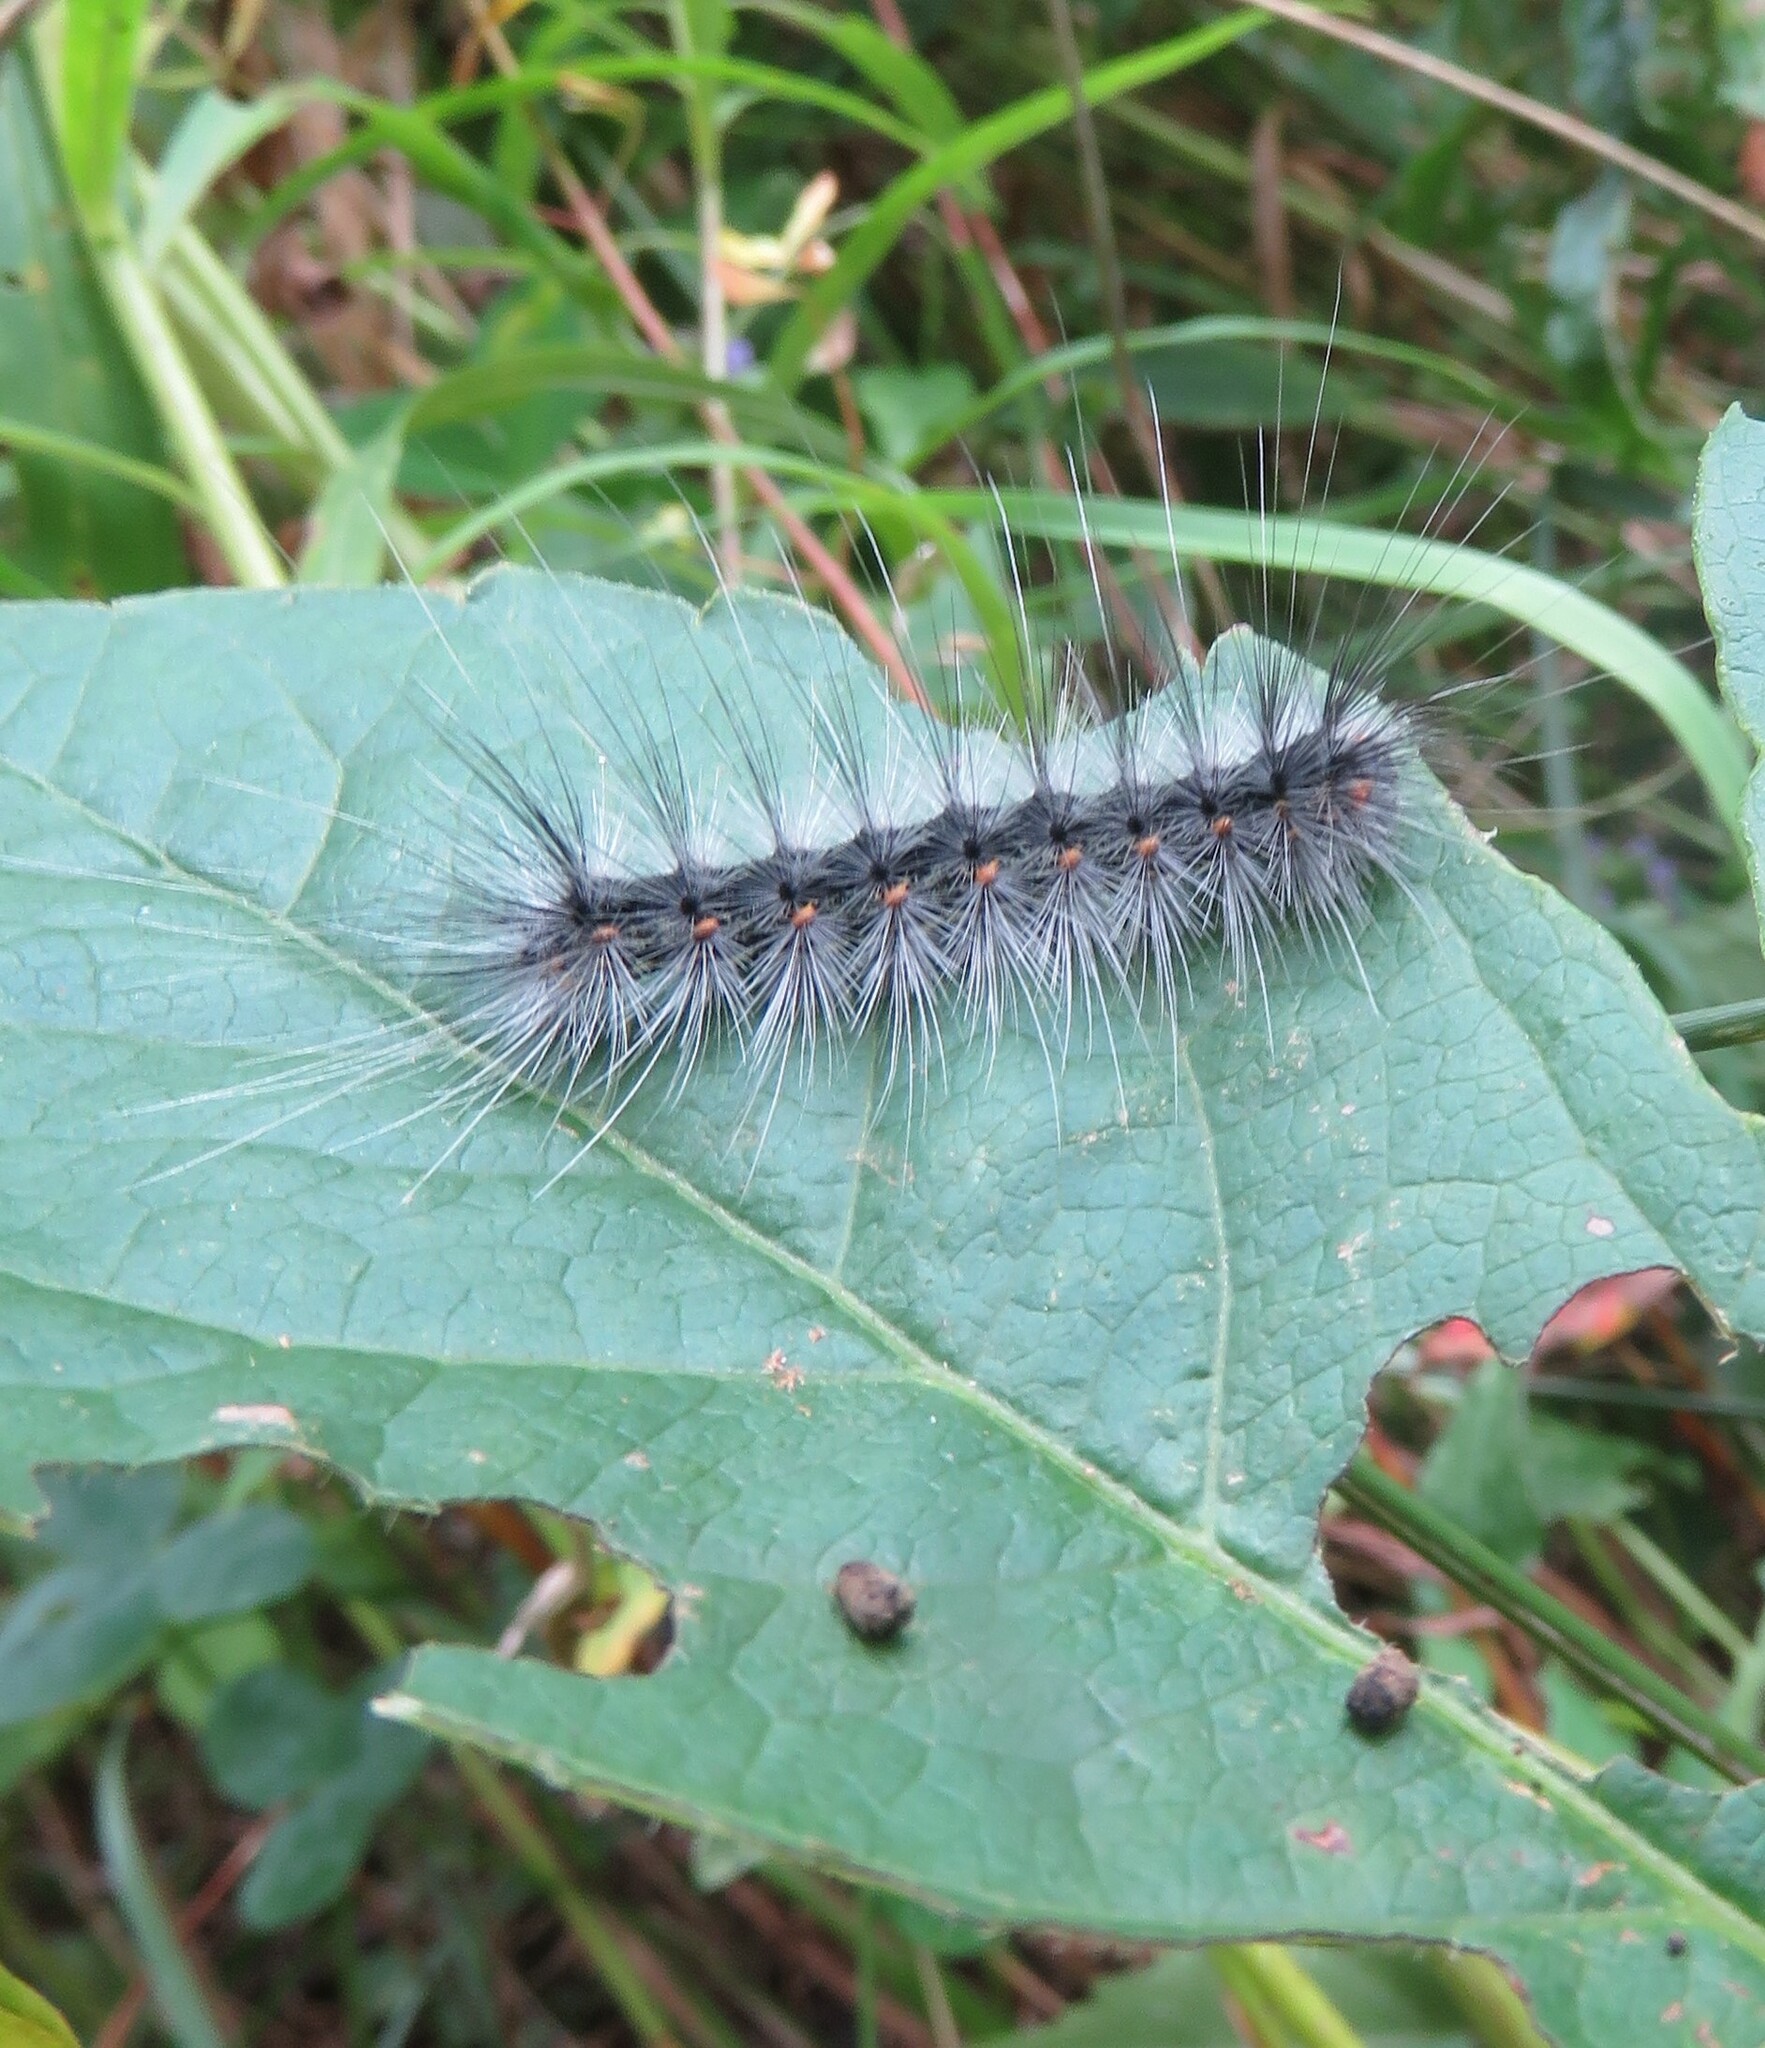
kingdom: Animalia
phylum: Arthropoda
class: Insecta
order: Lepidoptera
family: Erebidae
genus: Hyphantria
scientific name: Hyphantria cunea
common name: American white moth
